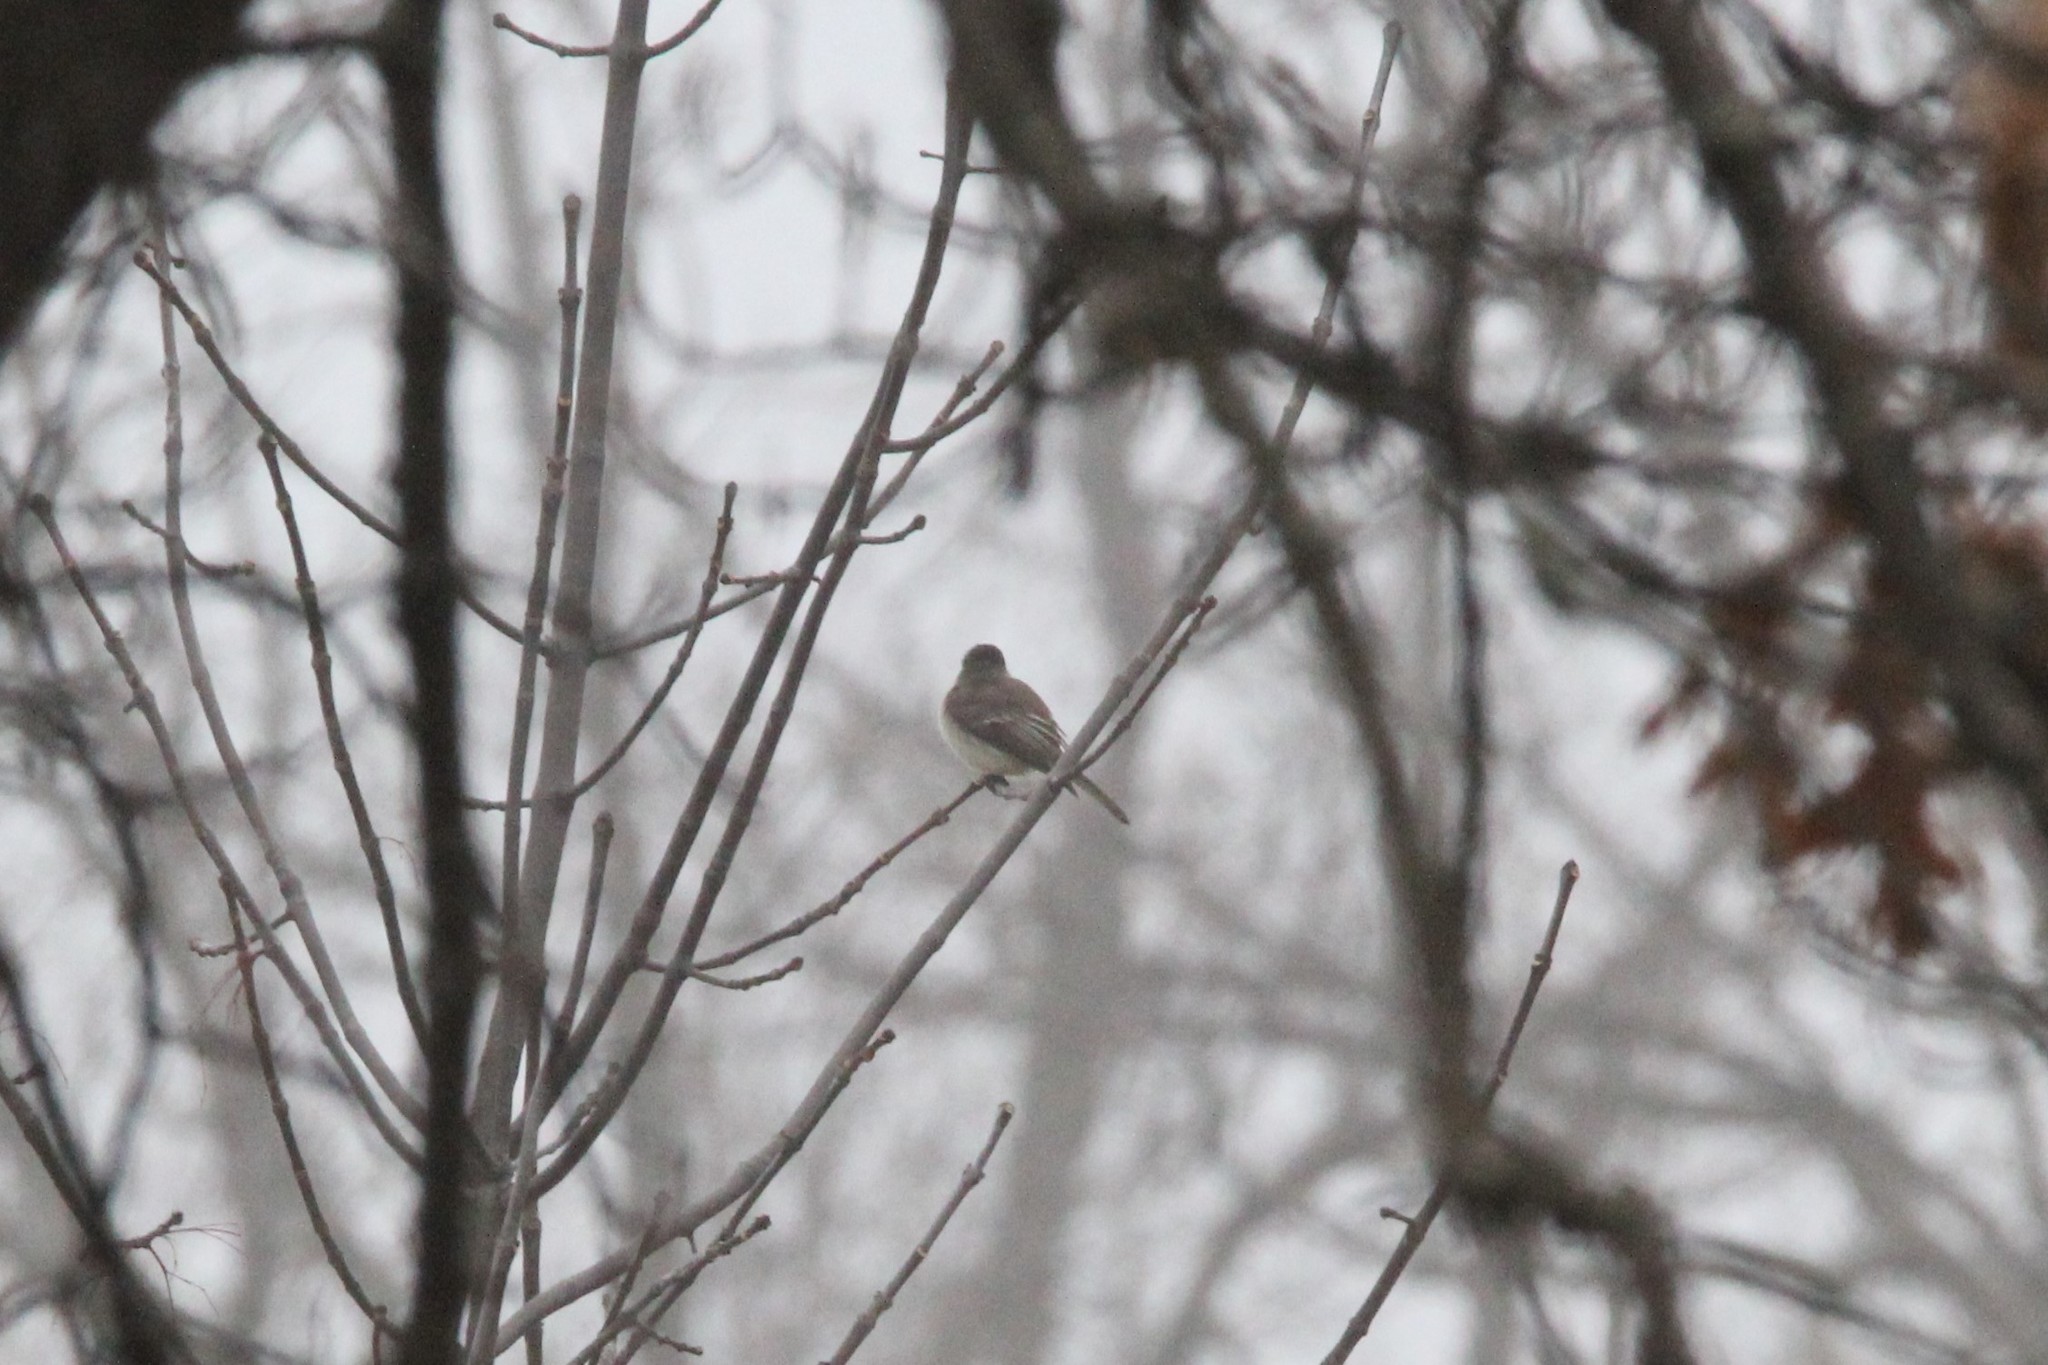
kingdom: Animalia
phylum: Chordata
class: Aves
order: Passeriformes
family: Tyrannidae
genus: Sayornis
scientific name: Sayornis phoebe
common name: Eastern phoebe
